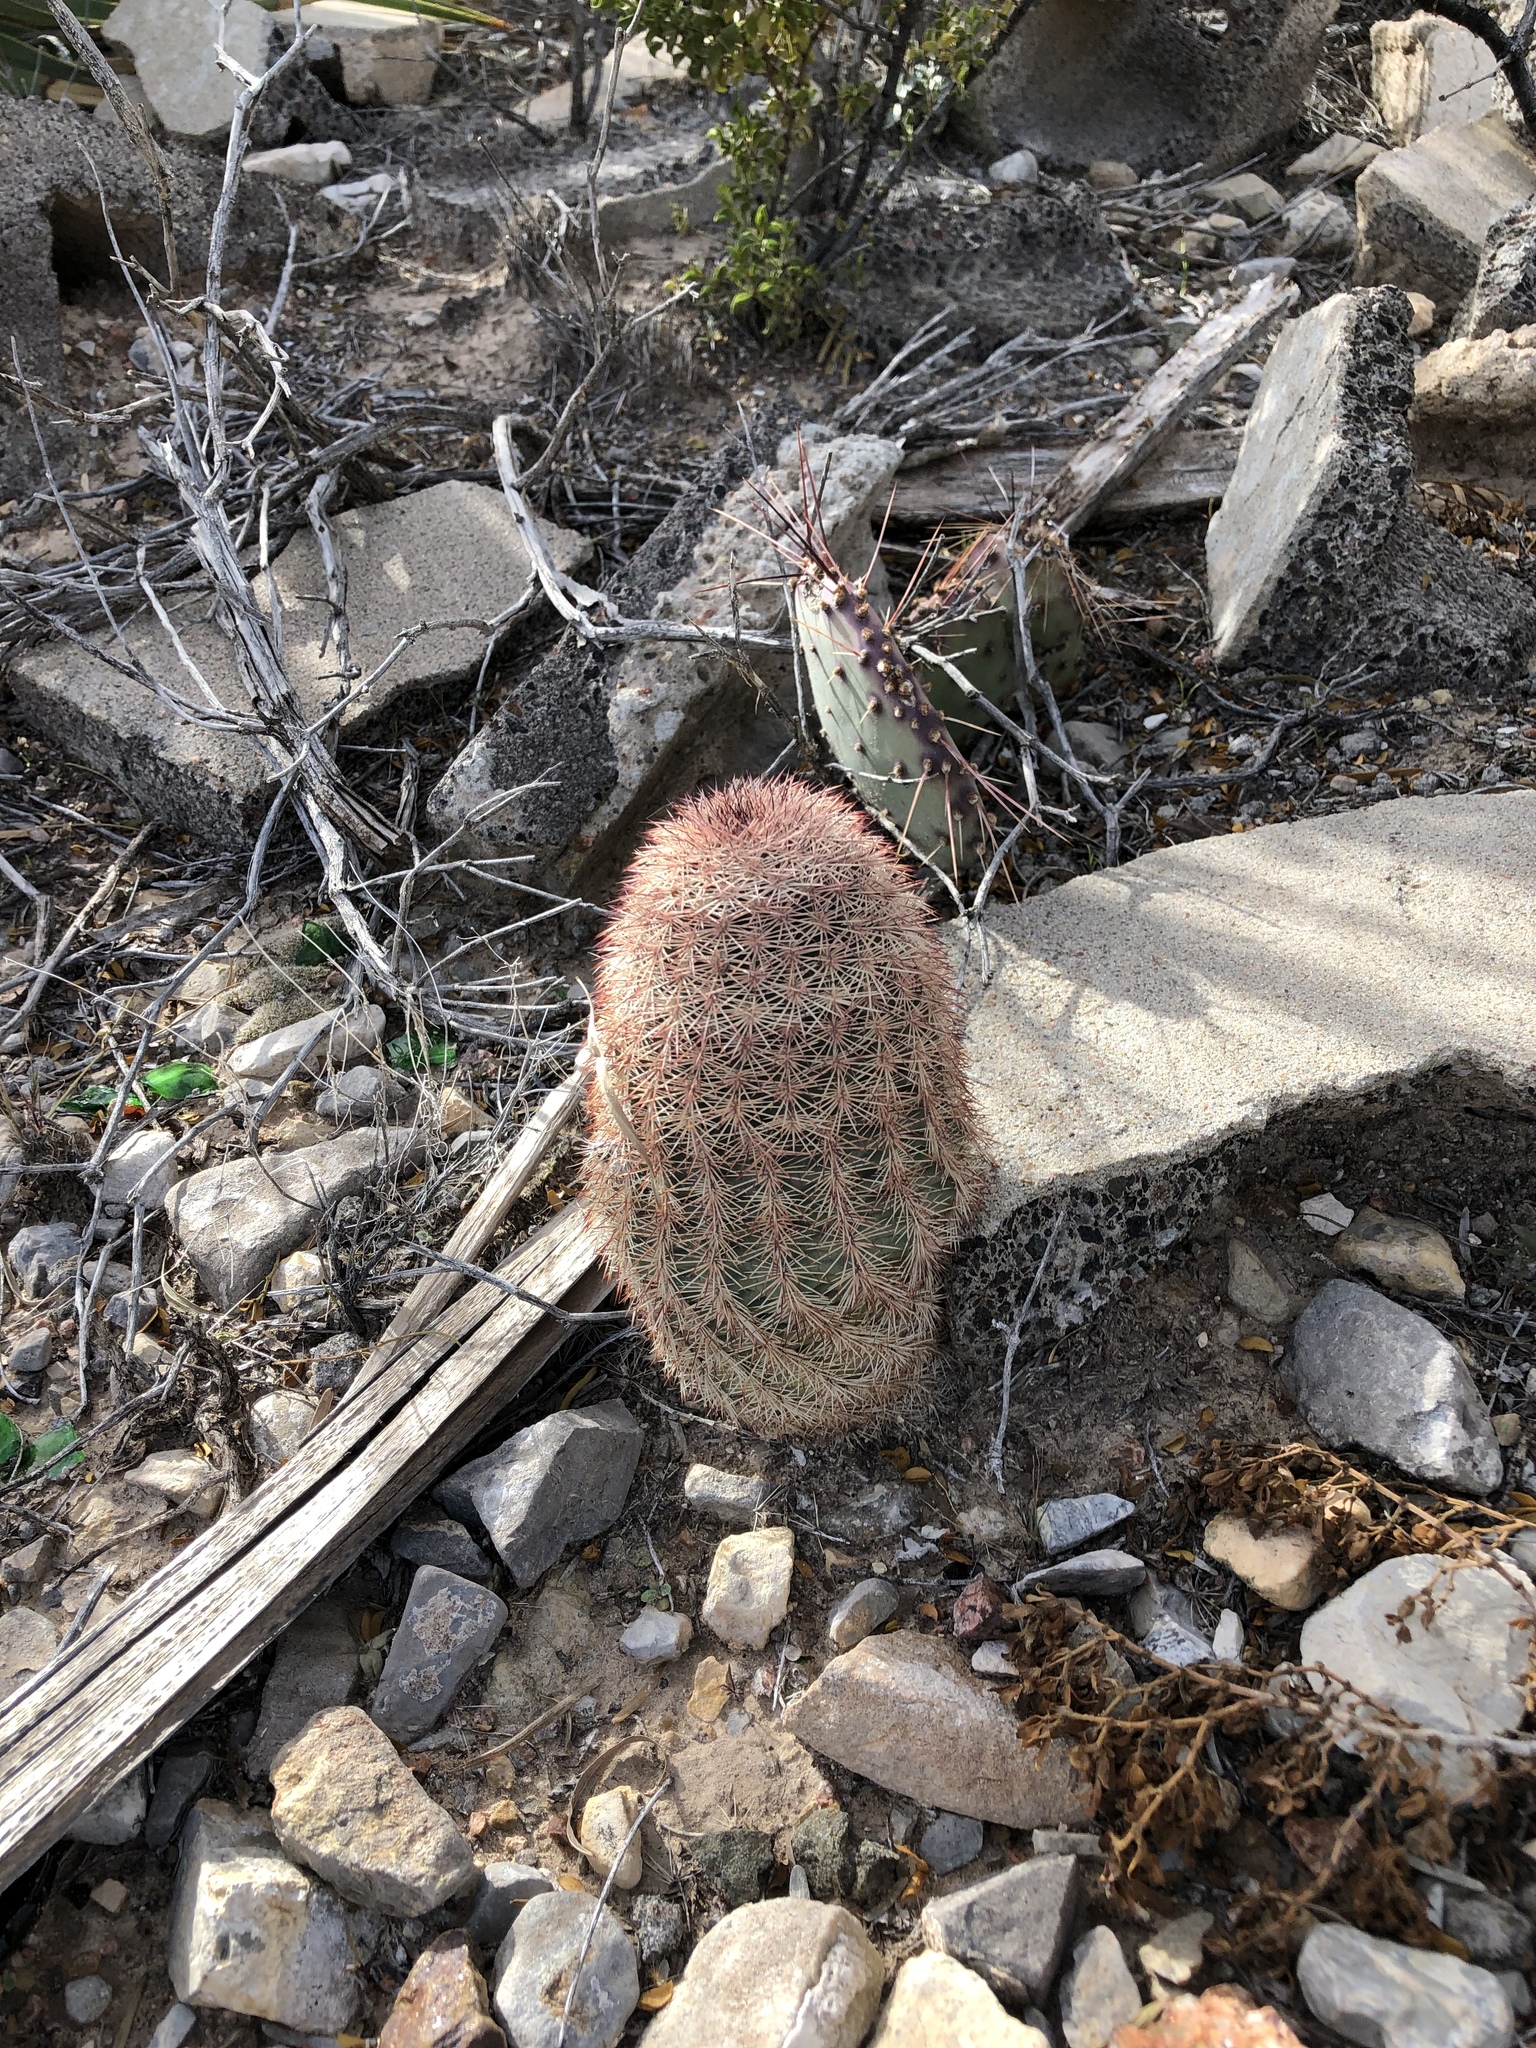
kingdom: Plantae
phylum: Tracheophyta
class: Magnoliopsida
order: Caryophyllales
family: Cactaceae
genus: Echinocereus
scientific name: Echinocereus dasyacanthus
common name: Spiny hedgehog cactus
